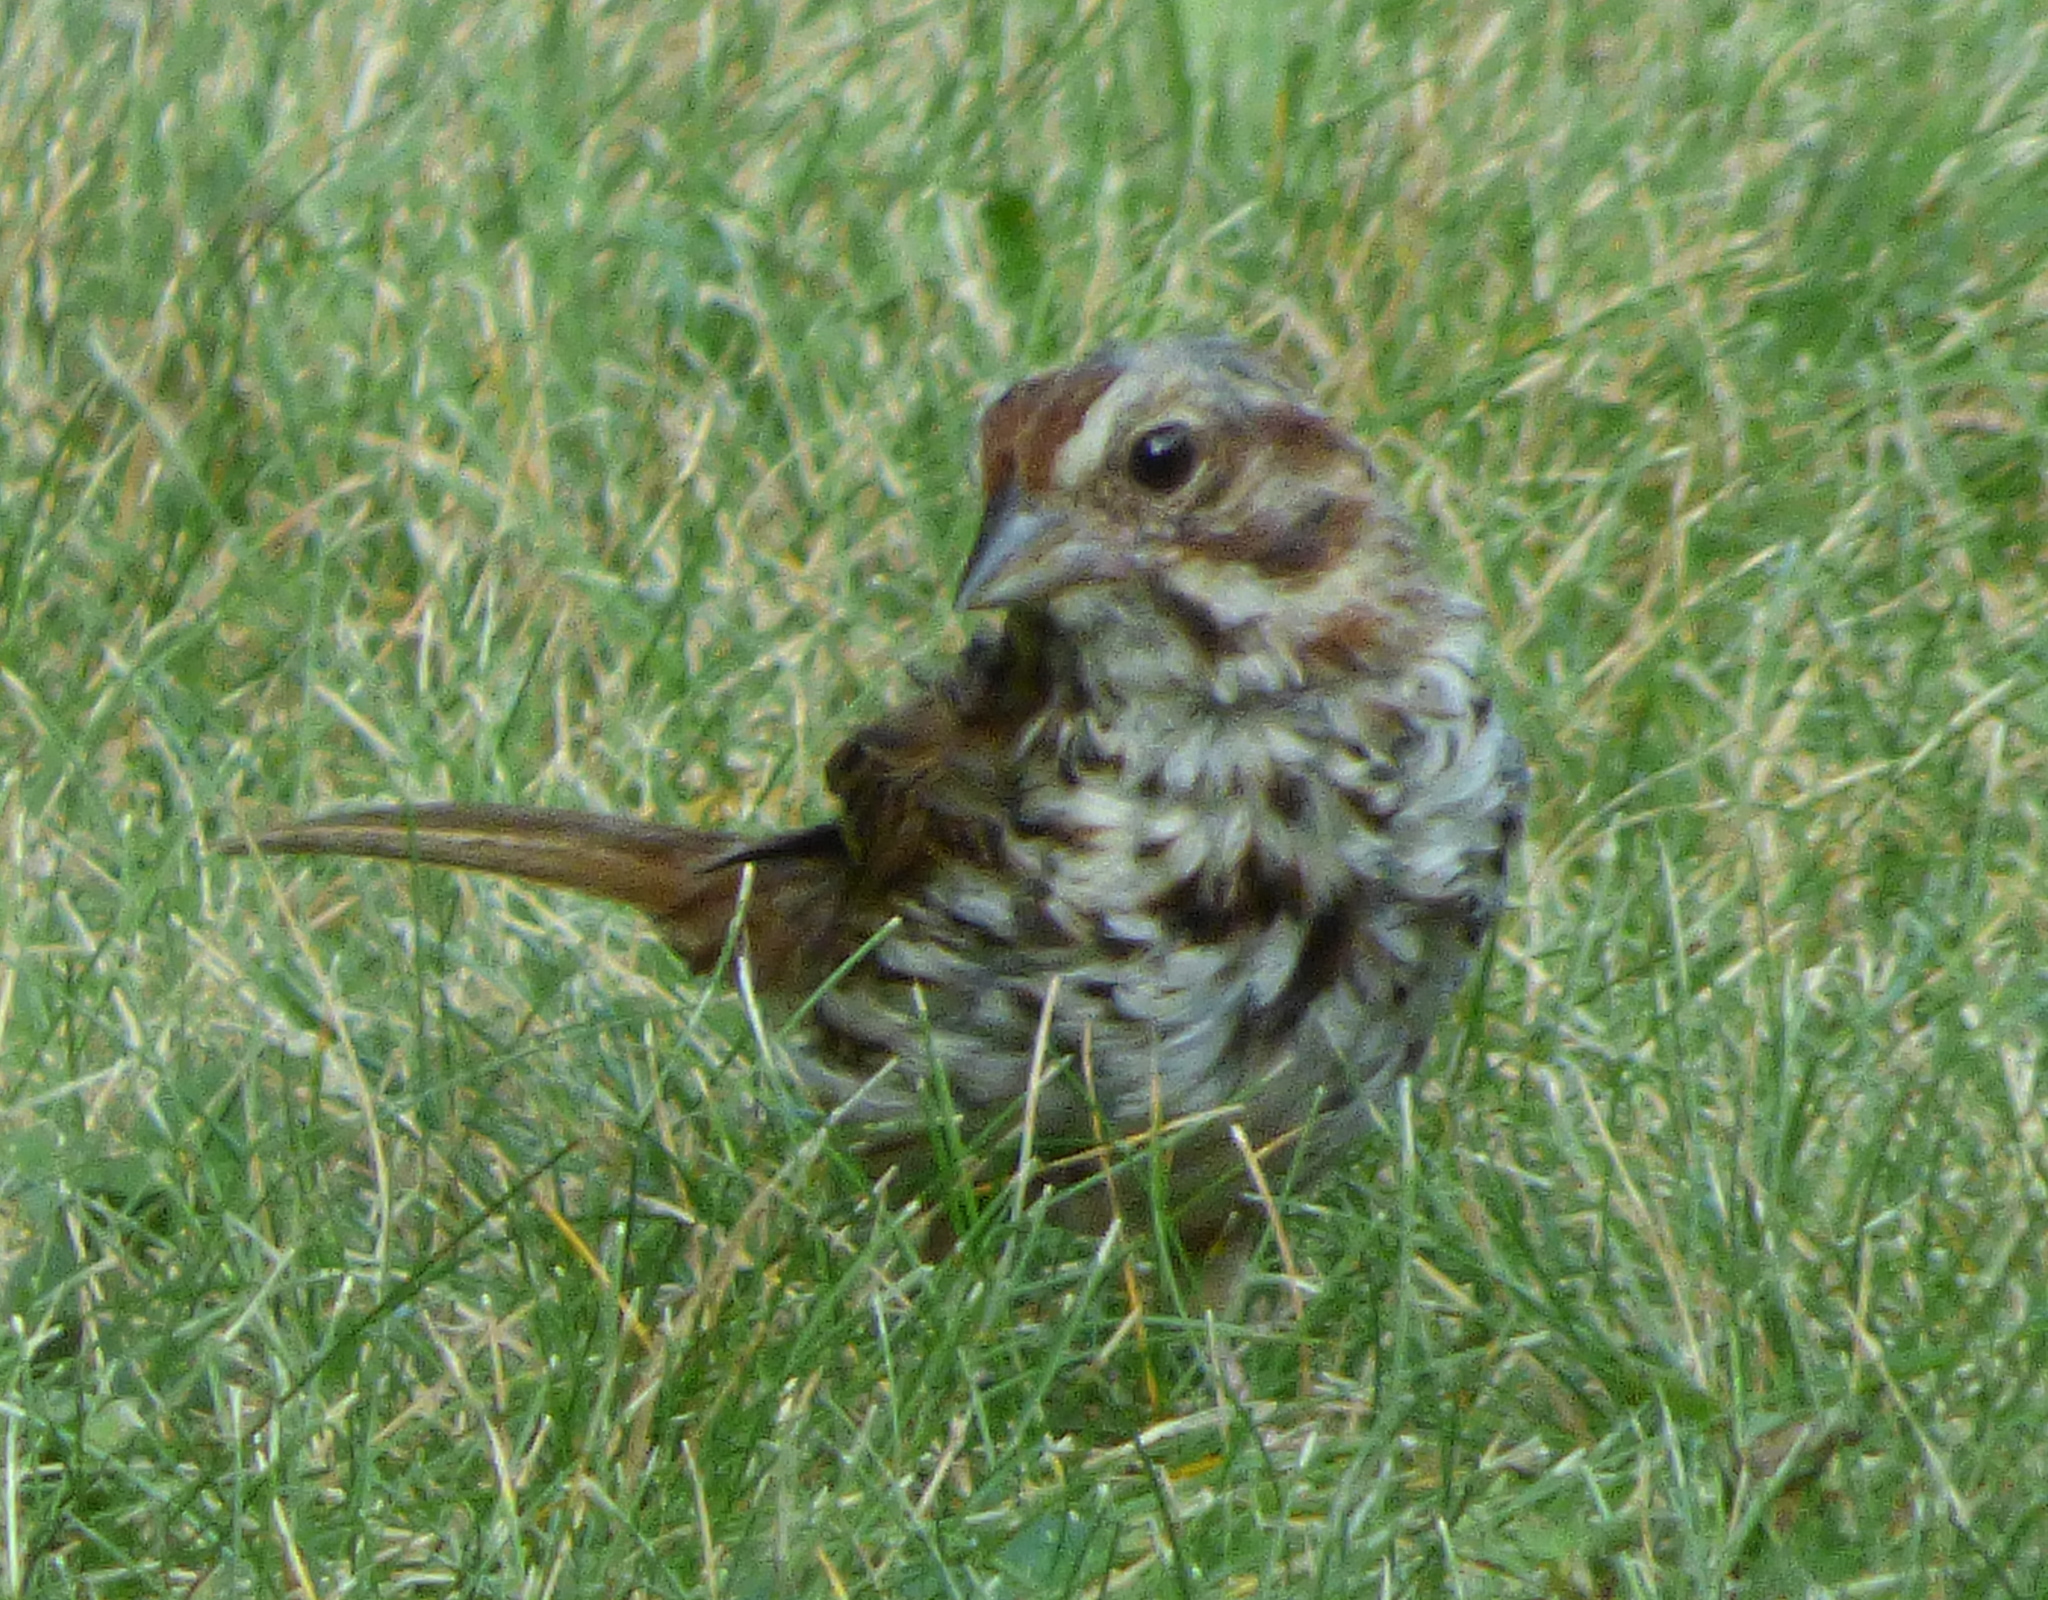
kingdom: Animalia
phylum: Chordata
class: Aves
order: Passeriformes
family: Passerellidae
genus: Melospiza
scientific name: Melospiza melodia
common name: Song sparrow
